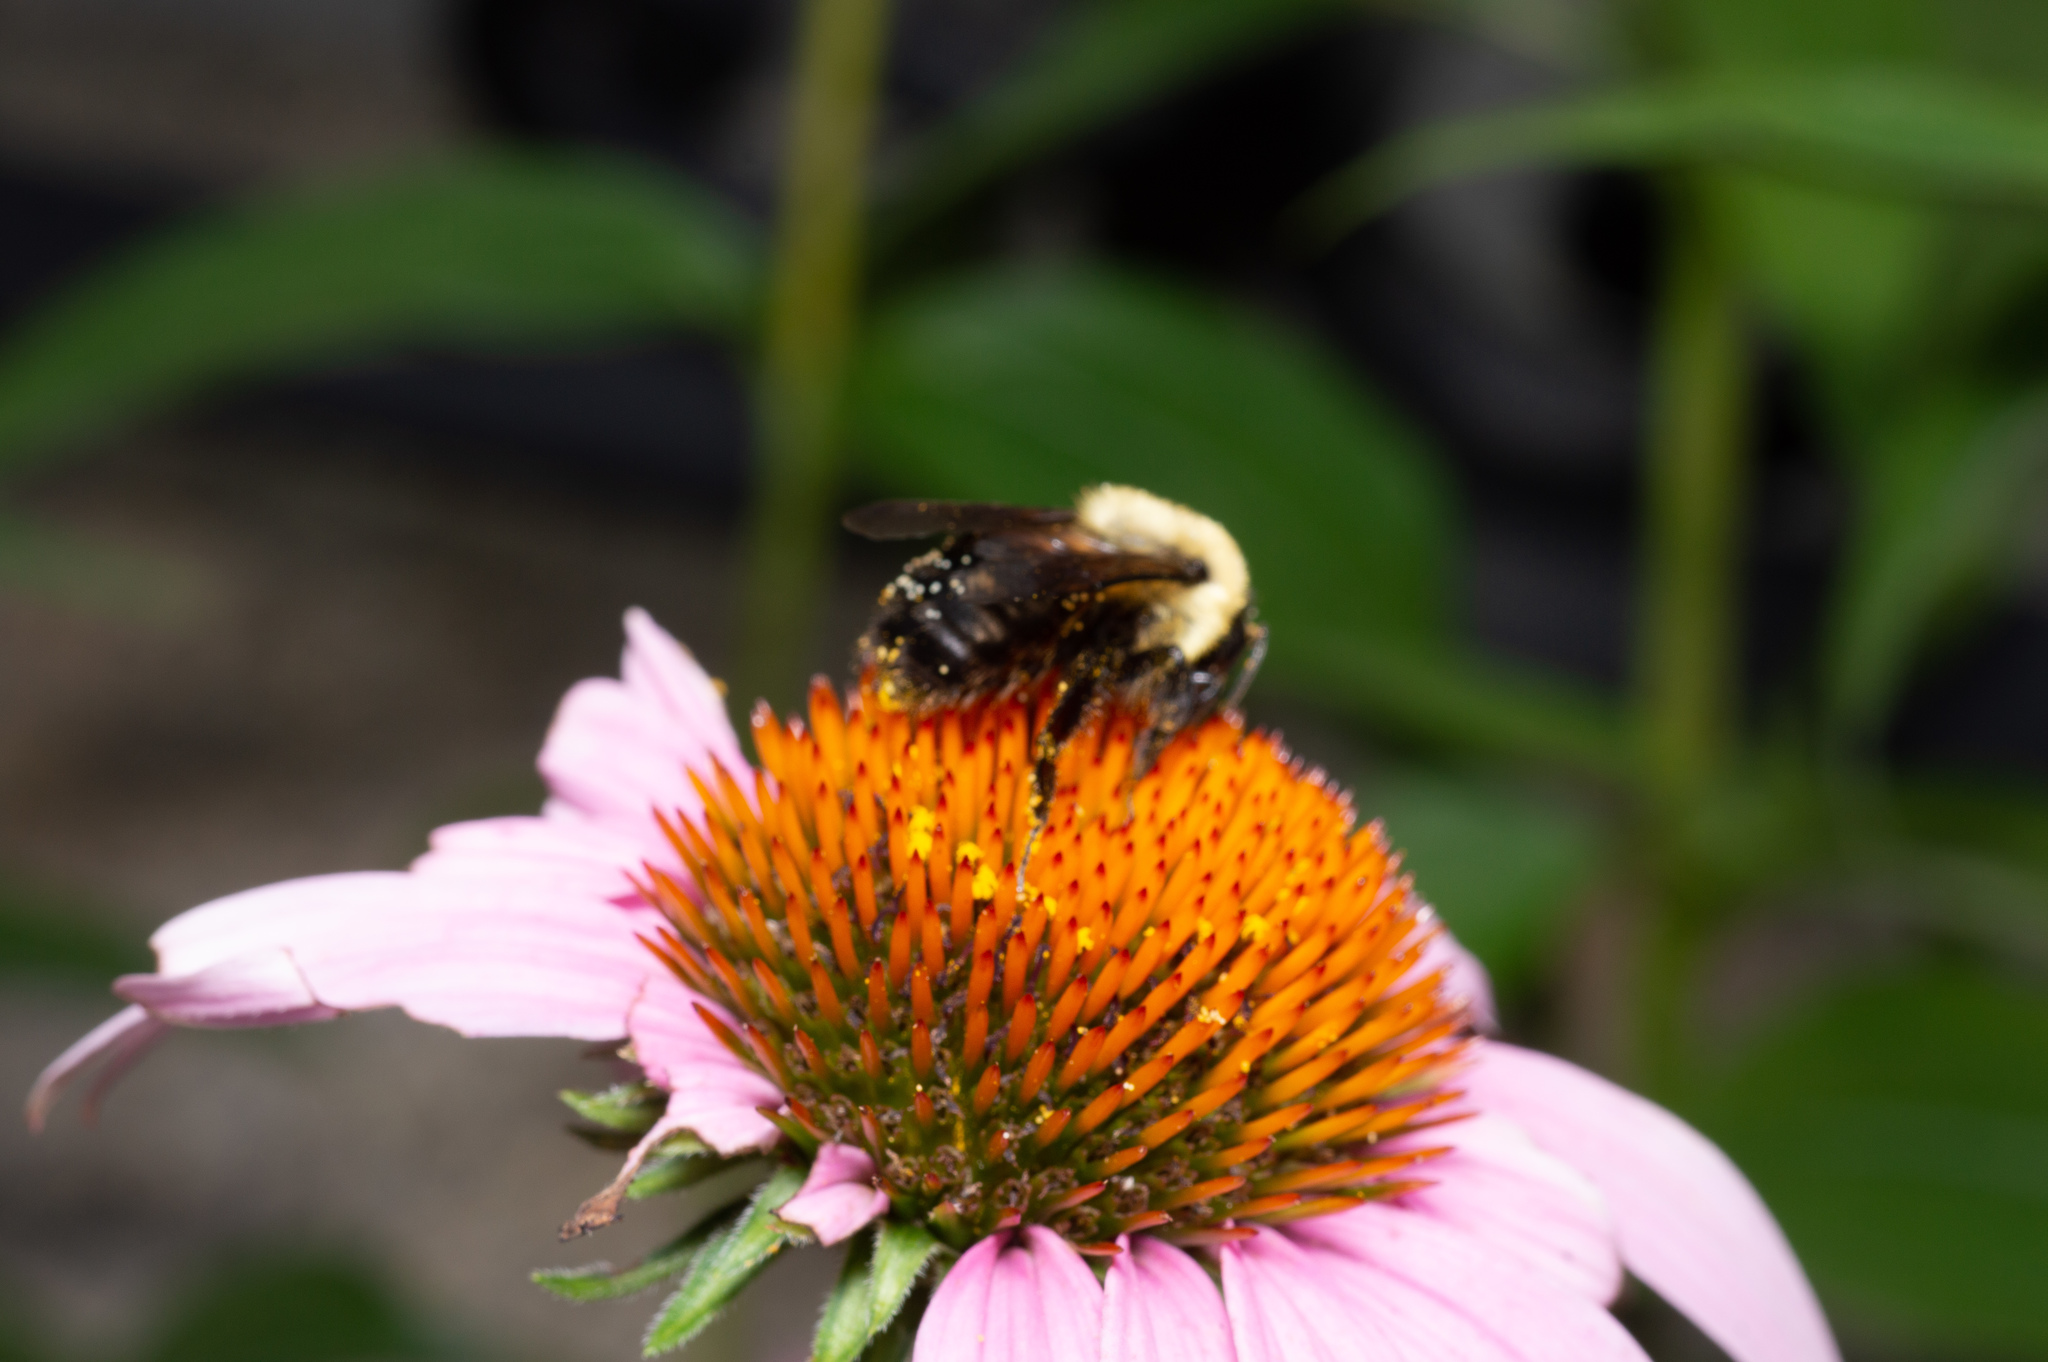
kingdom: Animalia
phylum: Arthropoda
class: Insecta
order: Hymenoptera
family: Apidae
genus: Bombus
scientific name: Bombus impatiens
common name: Common eastern bumble bee
